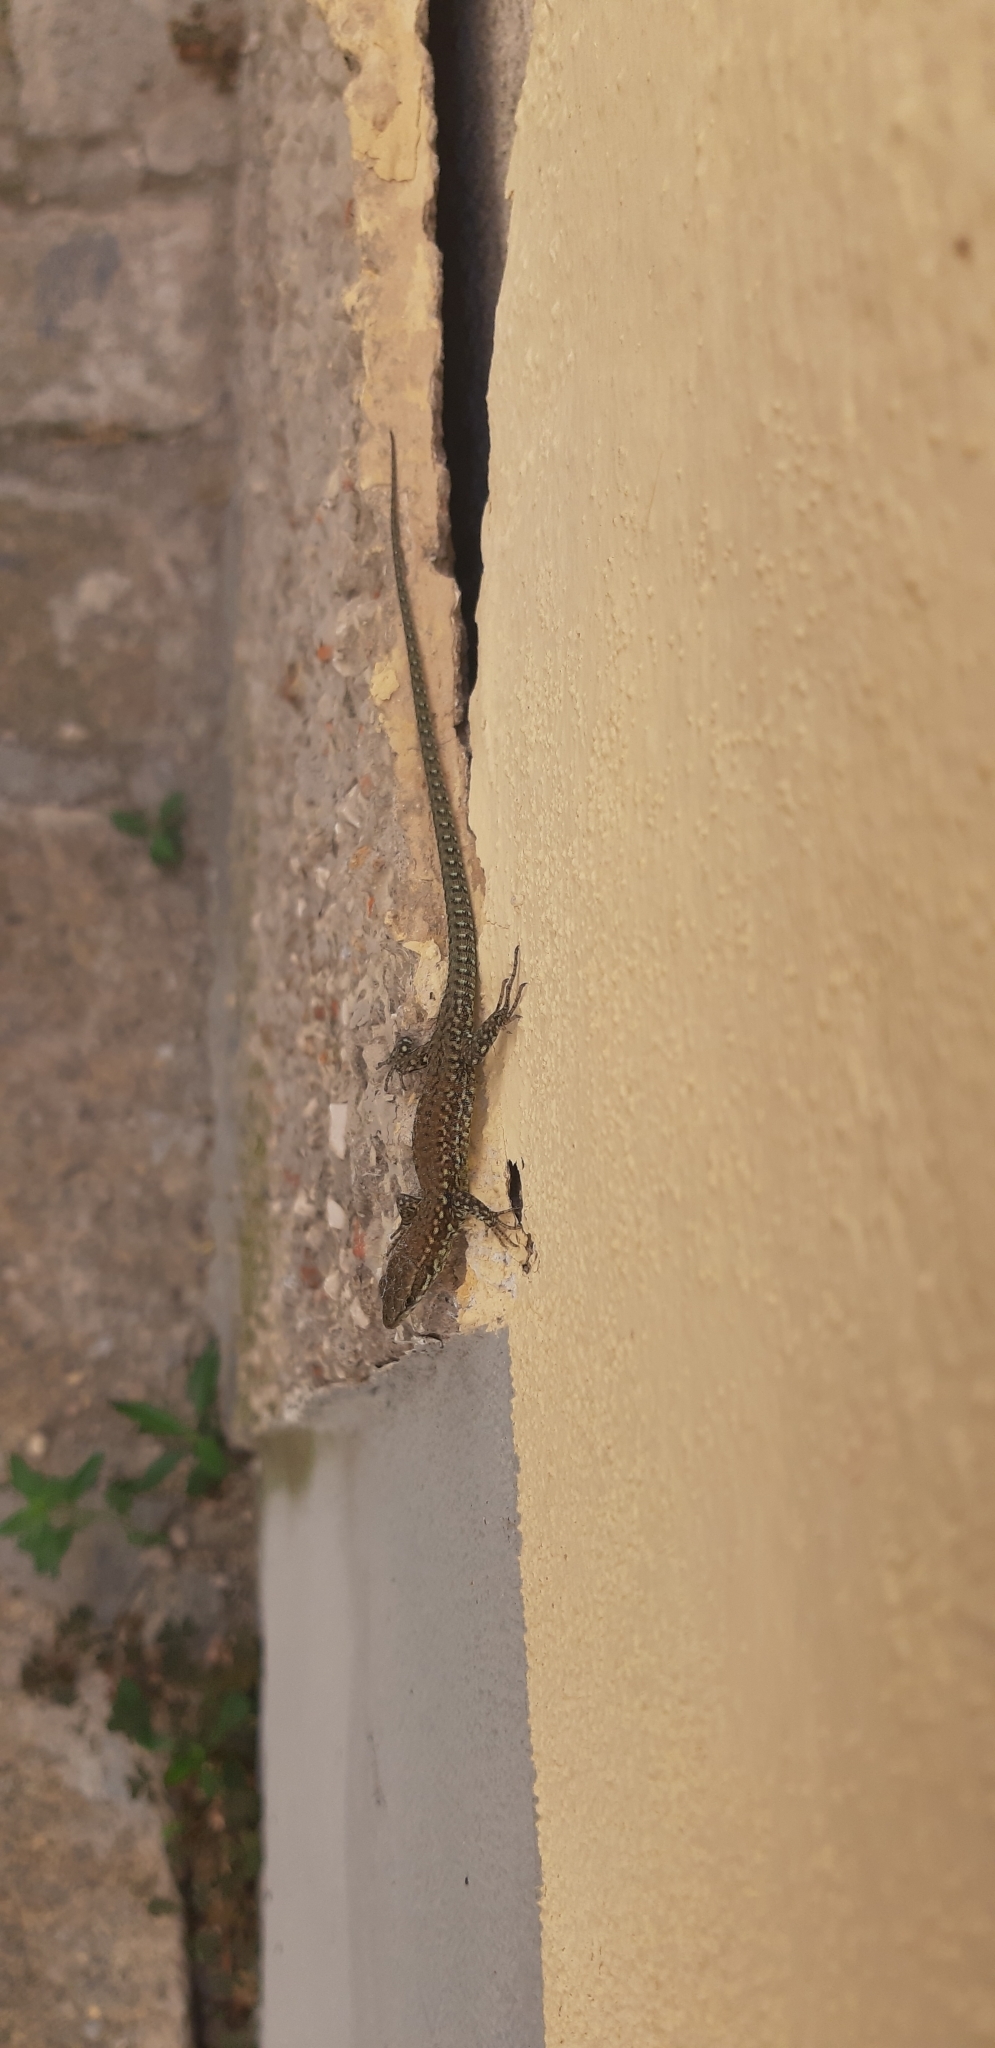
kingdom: Animalia
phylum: Chordata
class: Squamata
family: Lacertidae
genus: Podarcis
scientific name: Podarcis muralis
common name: Common wall lizard
